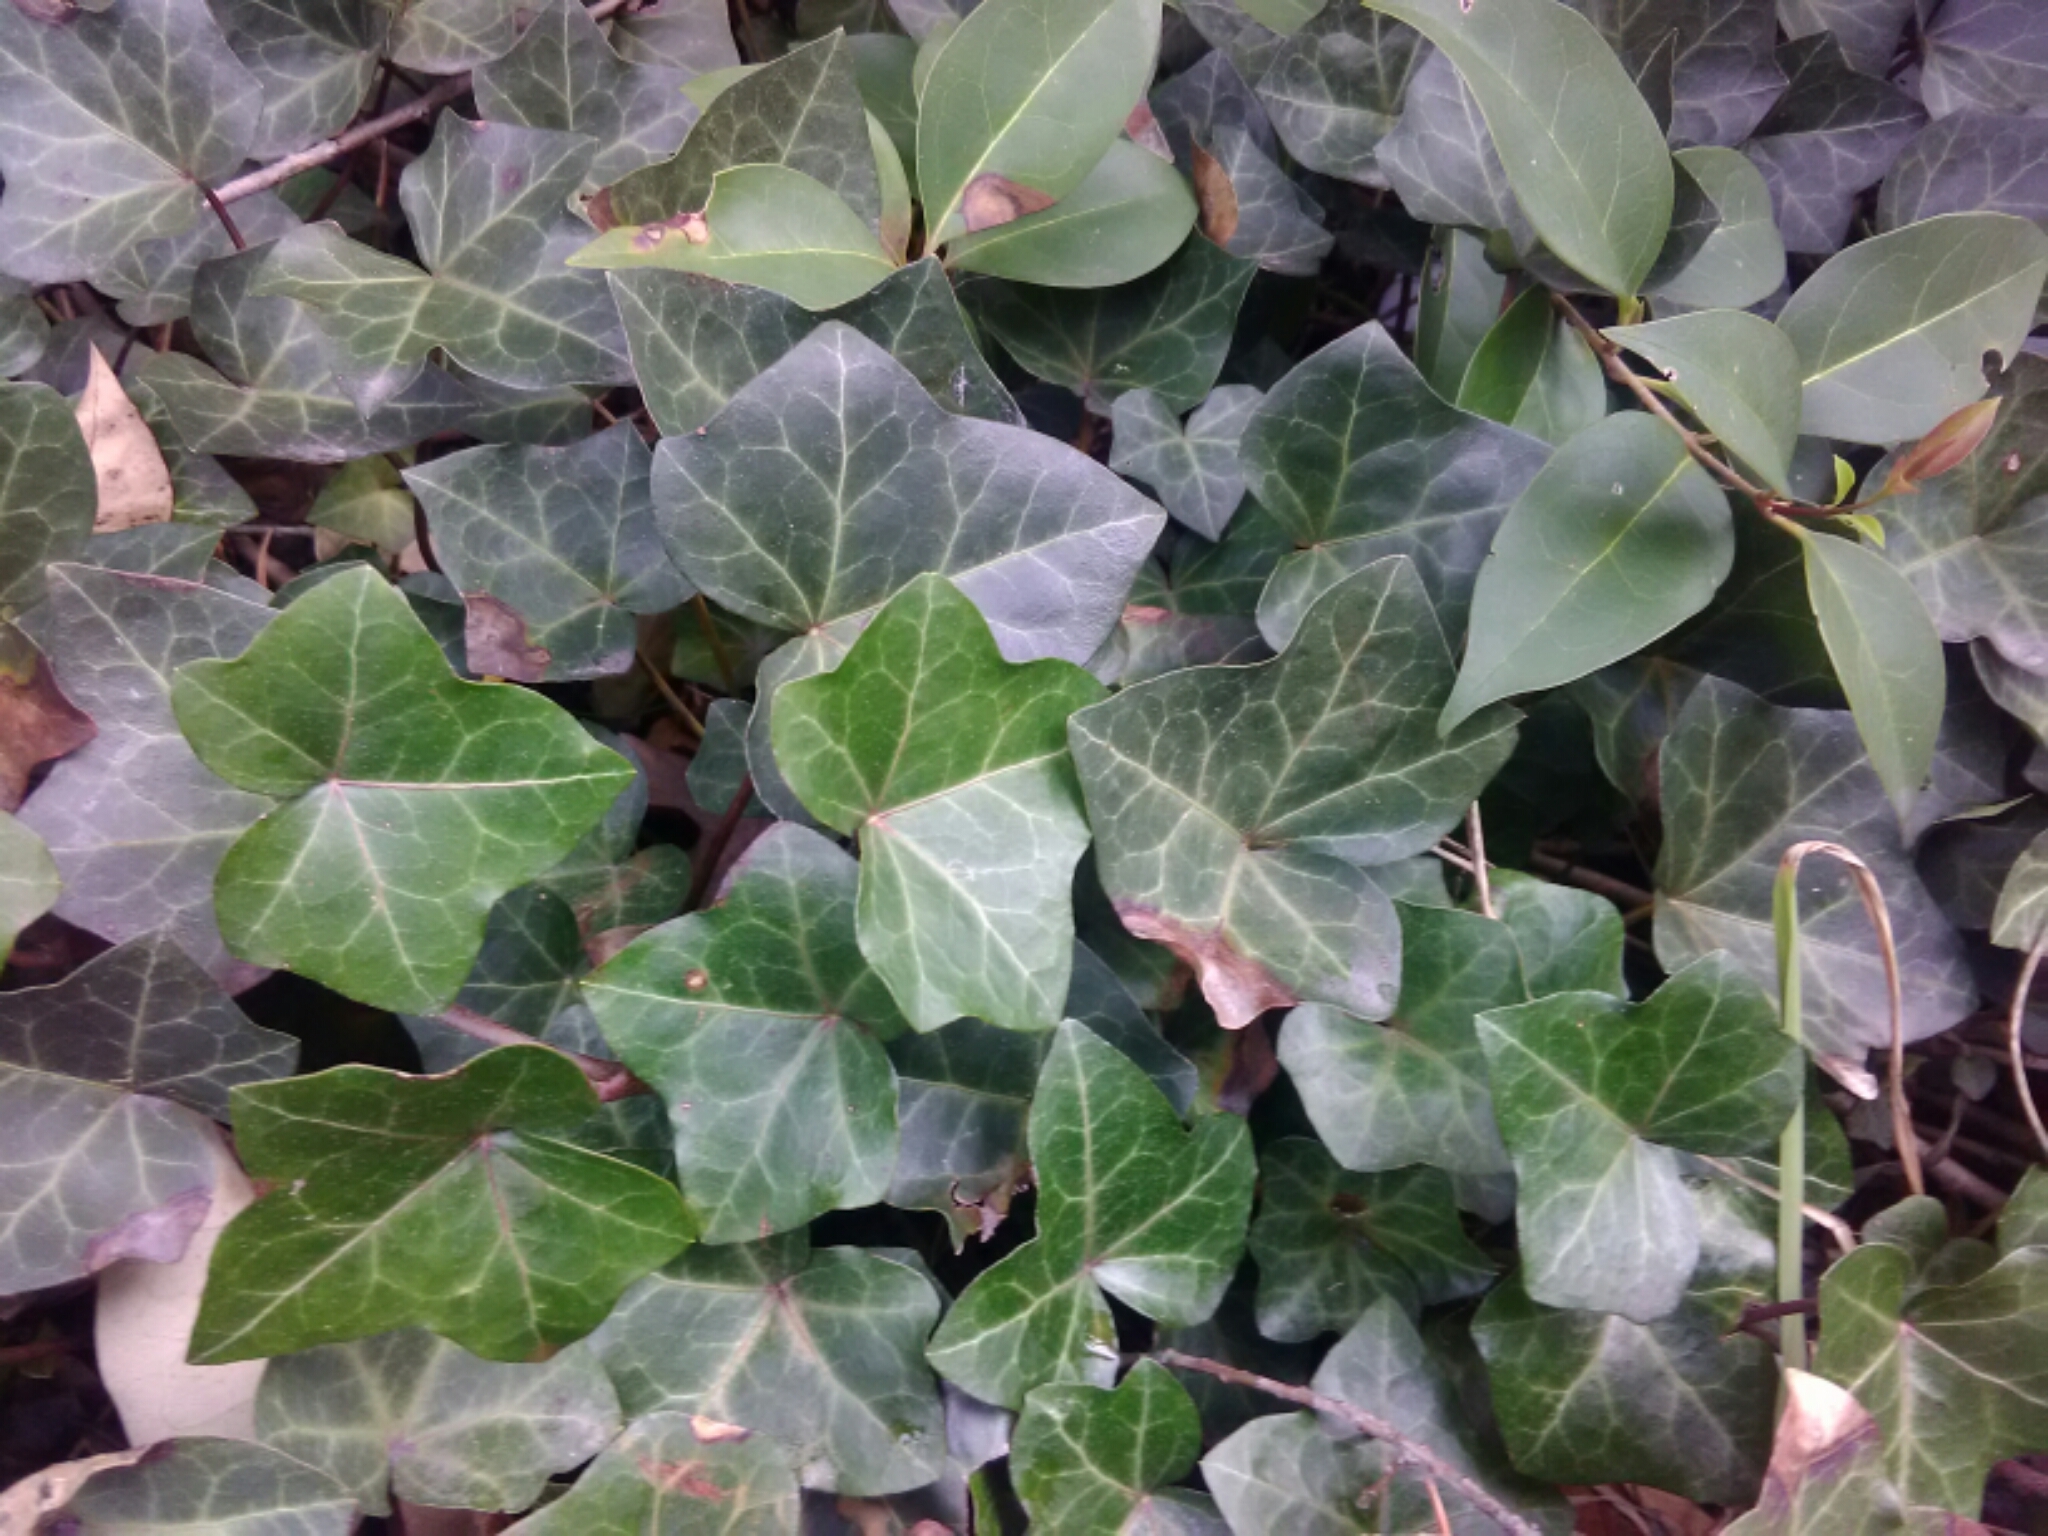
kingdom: Plantae
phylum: Tracheophyta
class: Magnoliopsida
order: Apiales
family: Araliaceae
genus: Hedera
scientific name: Hedera helix
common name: Ivy
